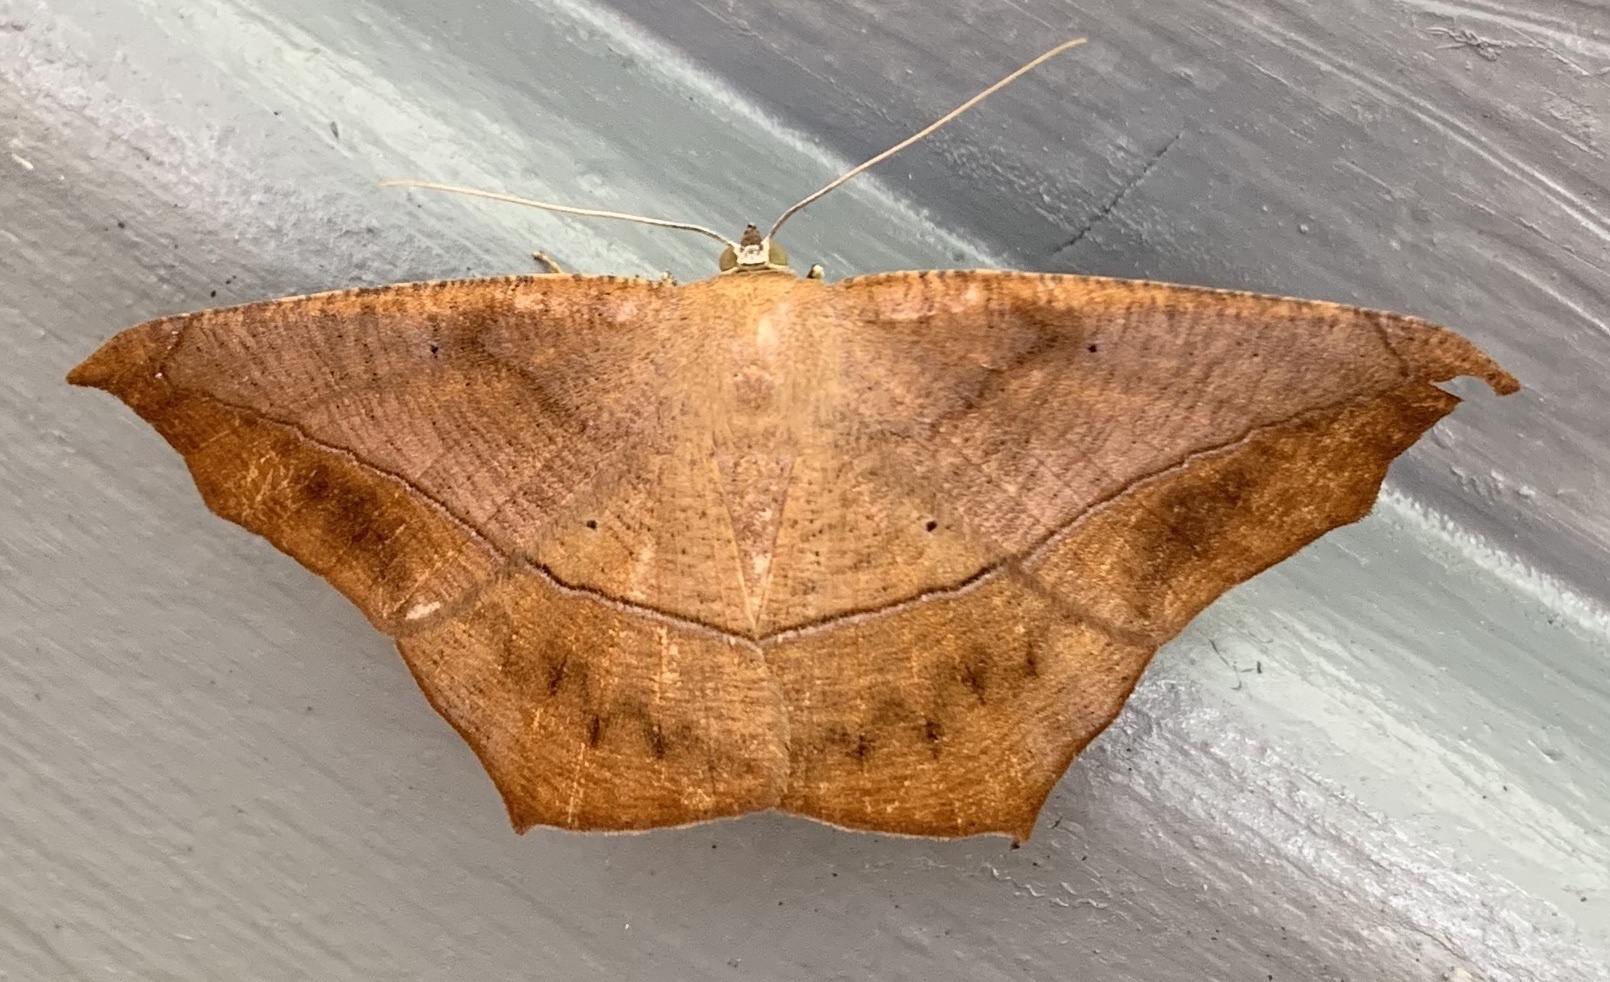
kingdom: Animalia
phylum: Arthropoda
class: Insecta
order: Lepidoptera
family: Geometridae
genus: Prochoerodes
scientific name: Prochoerodes lineola
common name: Large maple spanworm
